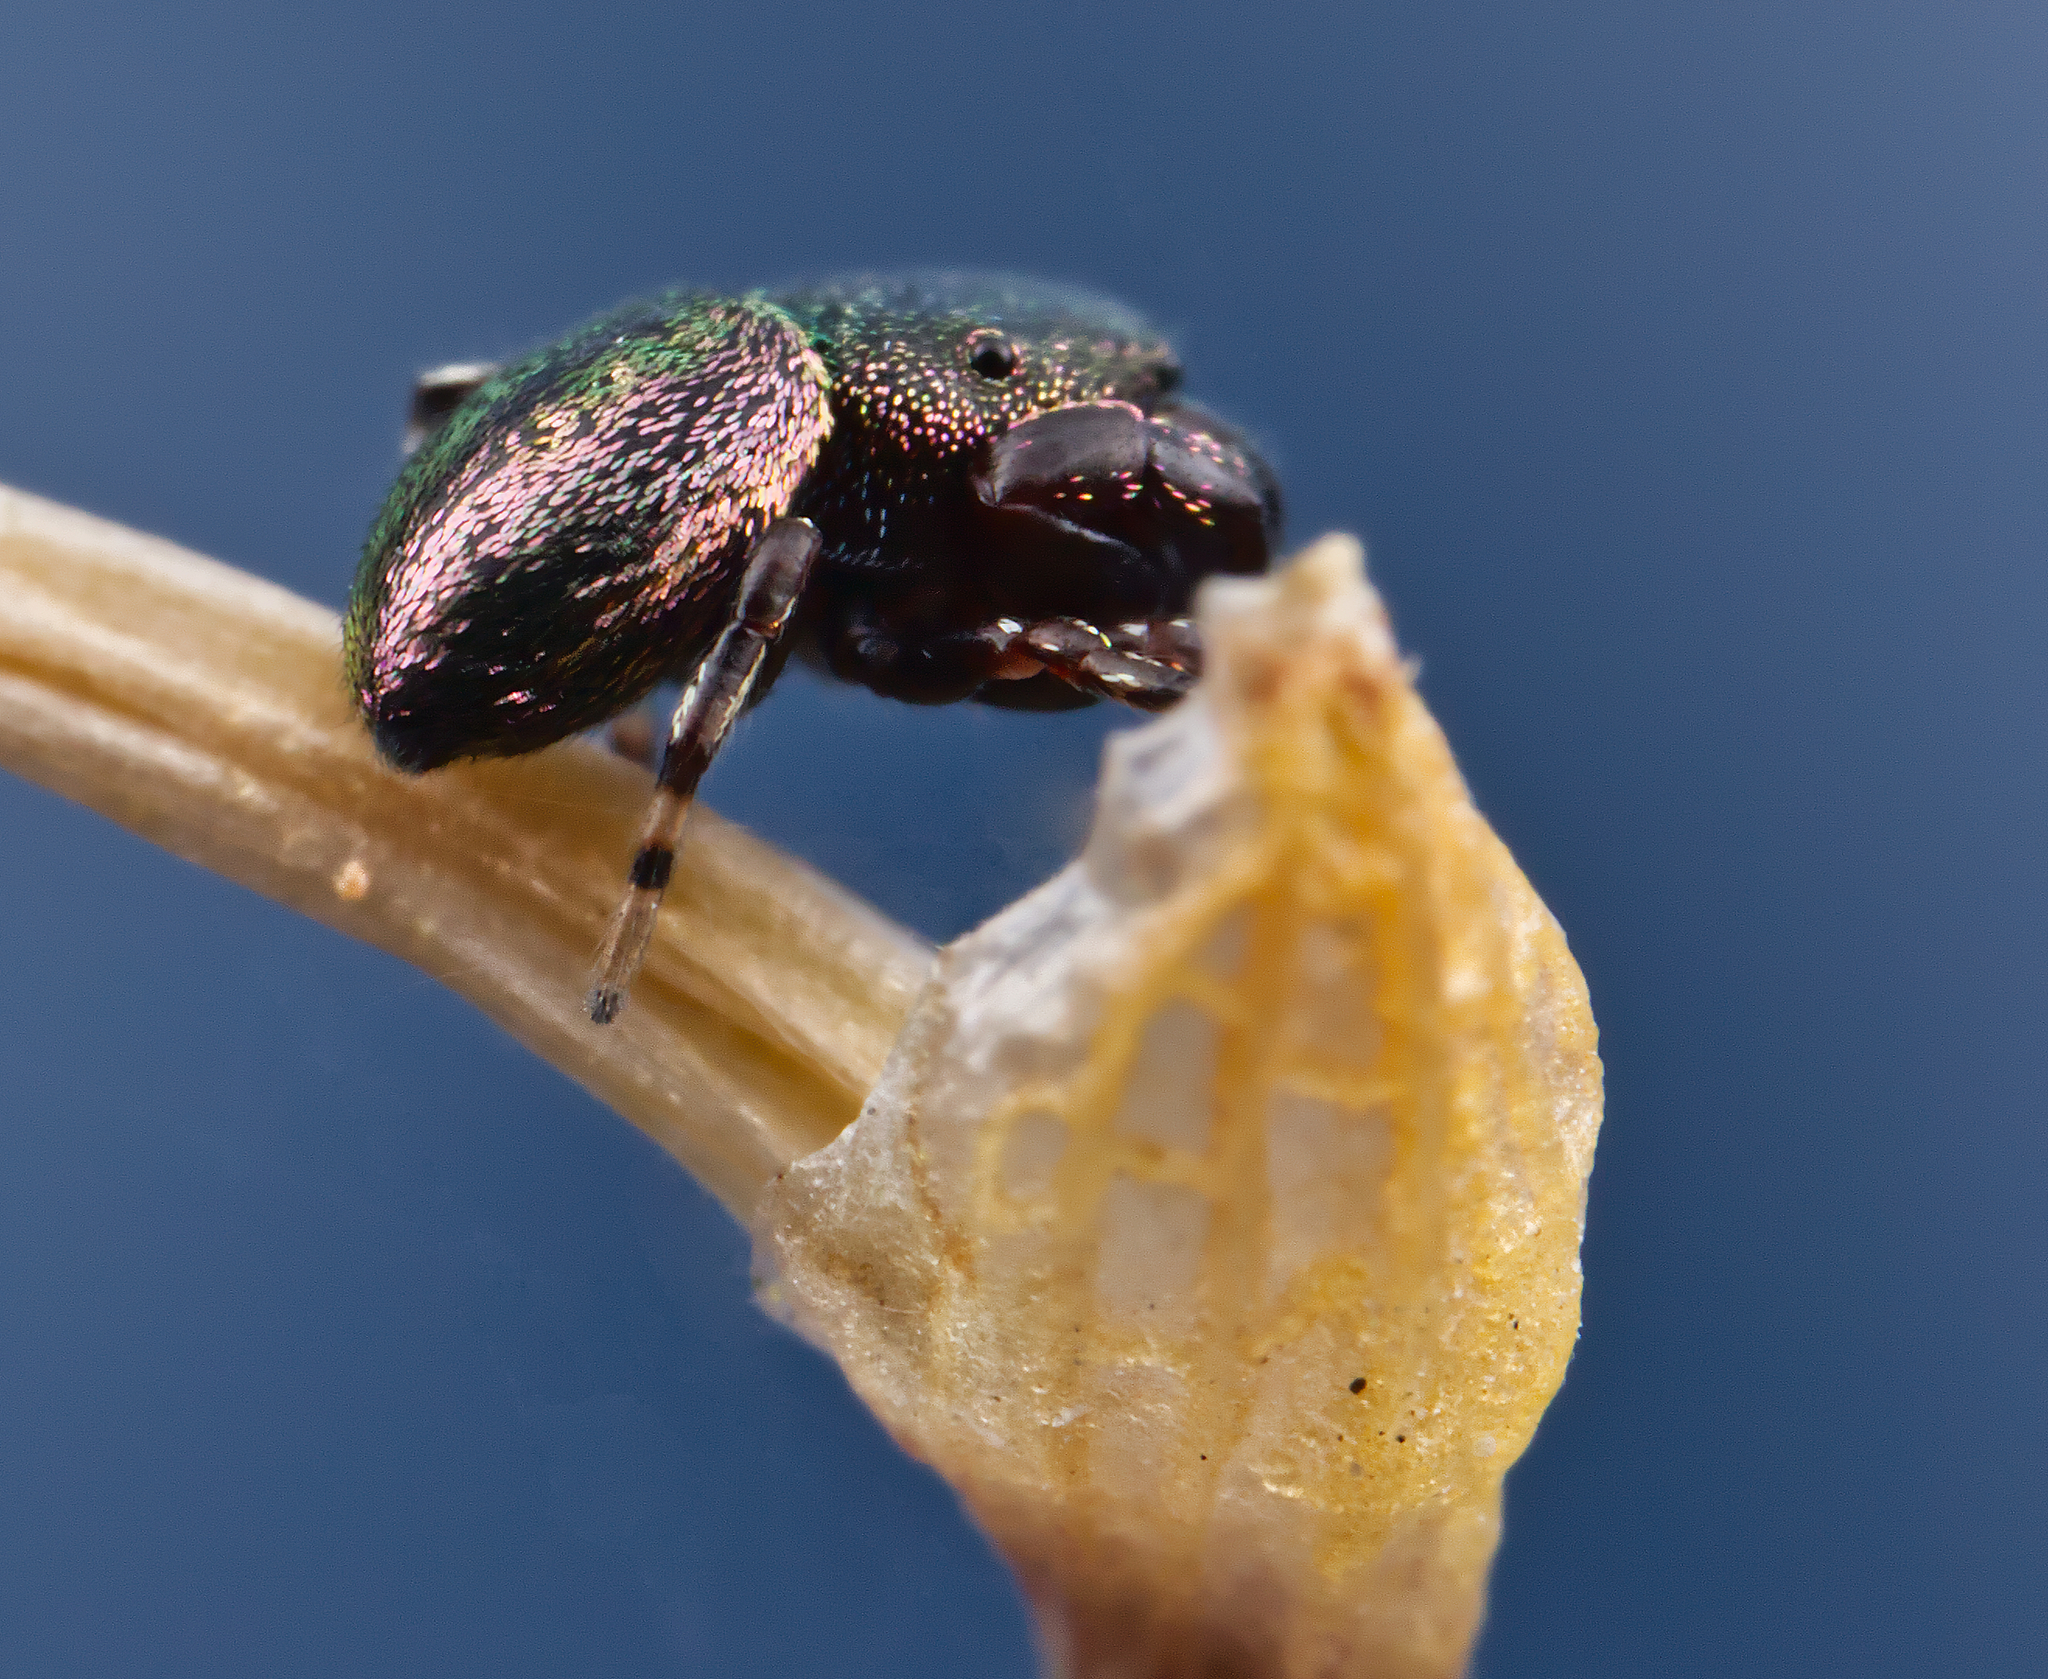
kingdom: Animalia
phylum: Arthropoda
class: Arachnida
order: Araneae
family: Salticidae
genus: Sassacus
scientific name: Sassacus cyaneus
